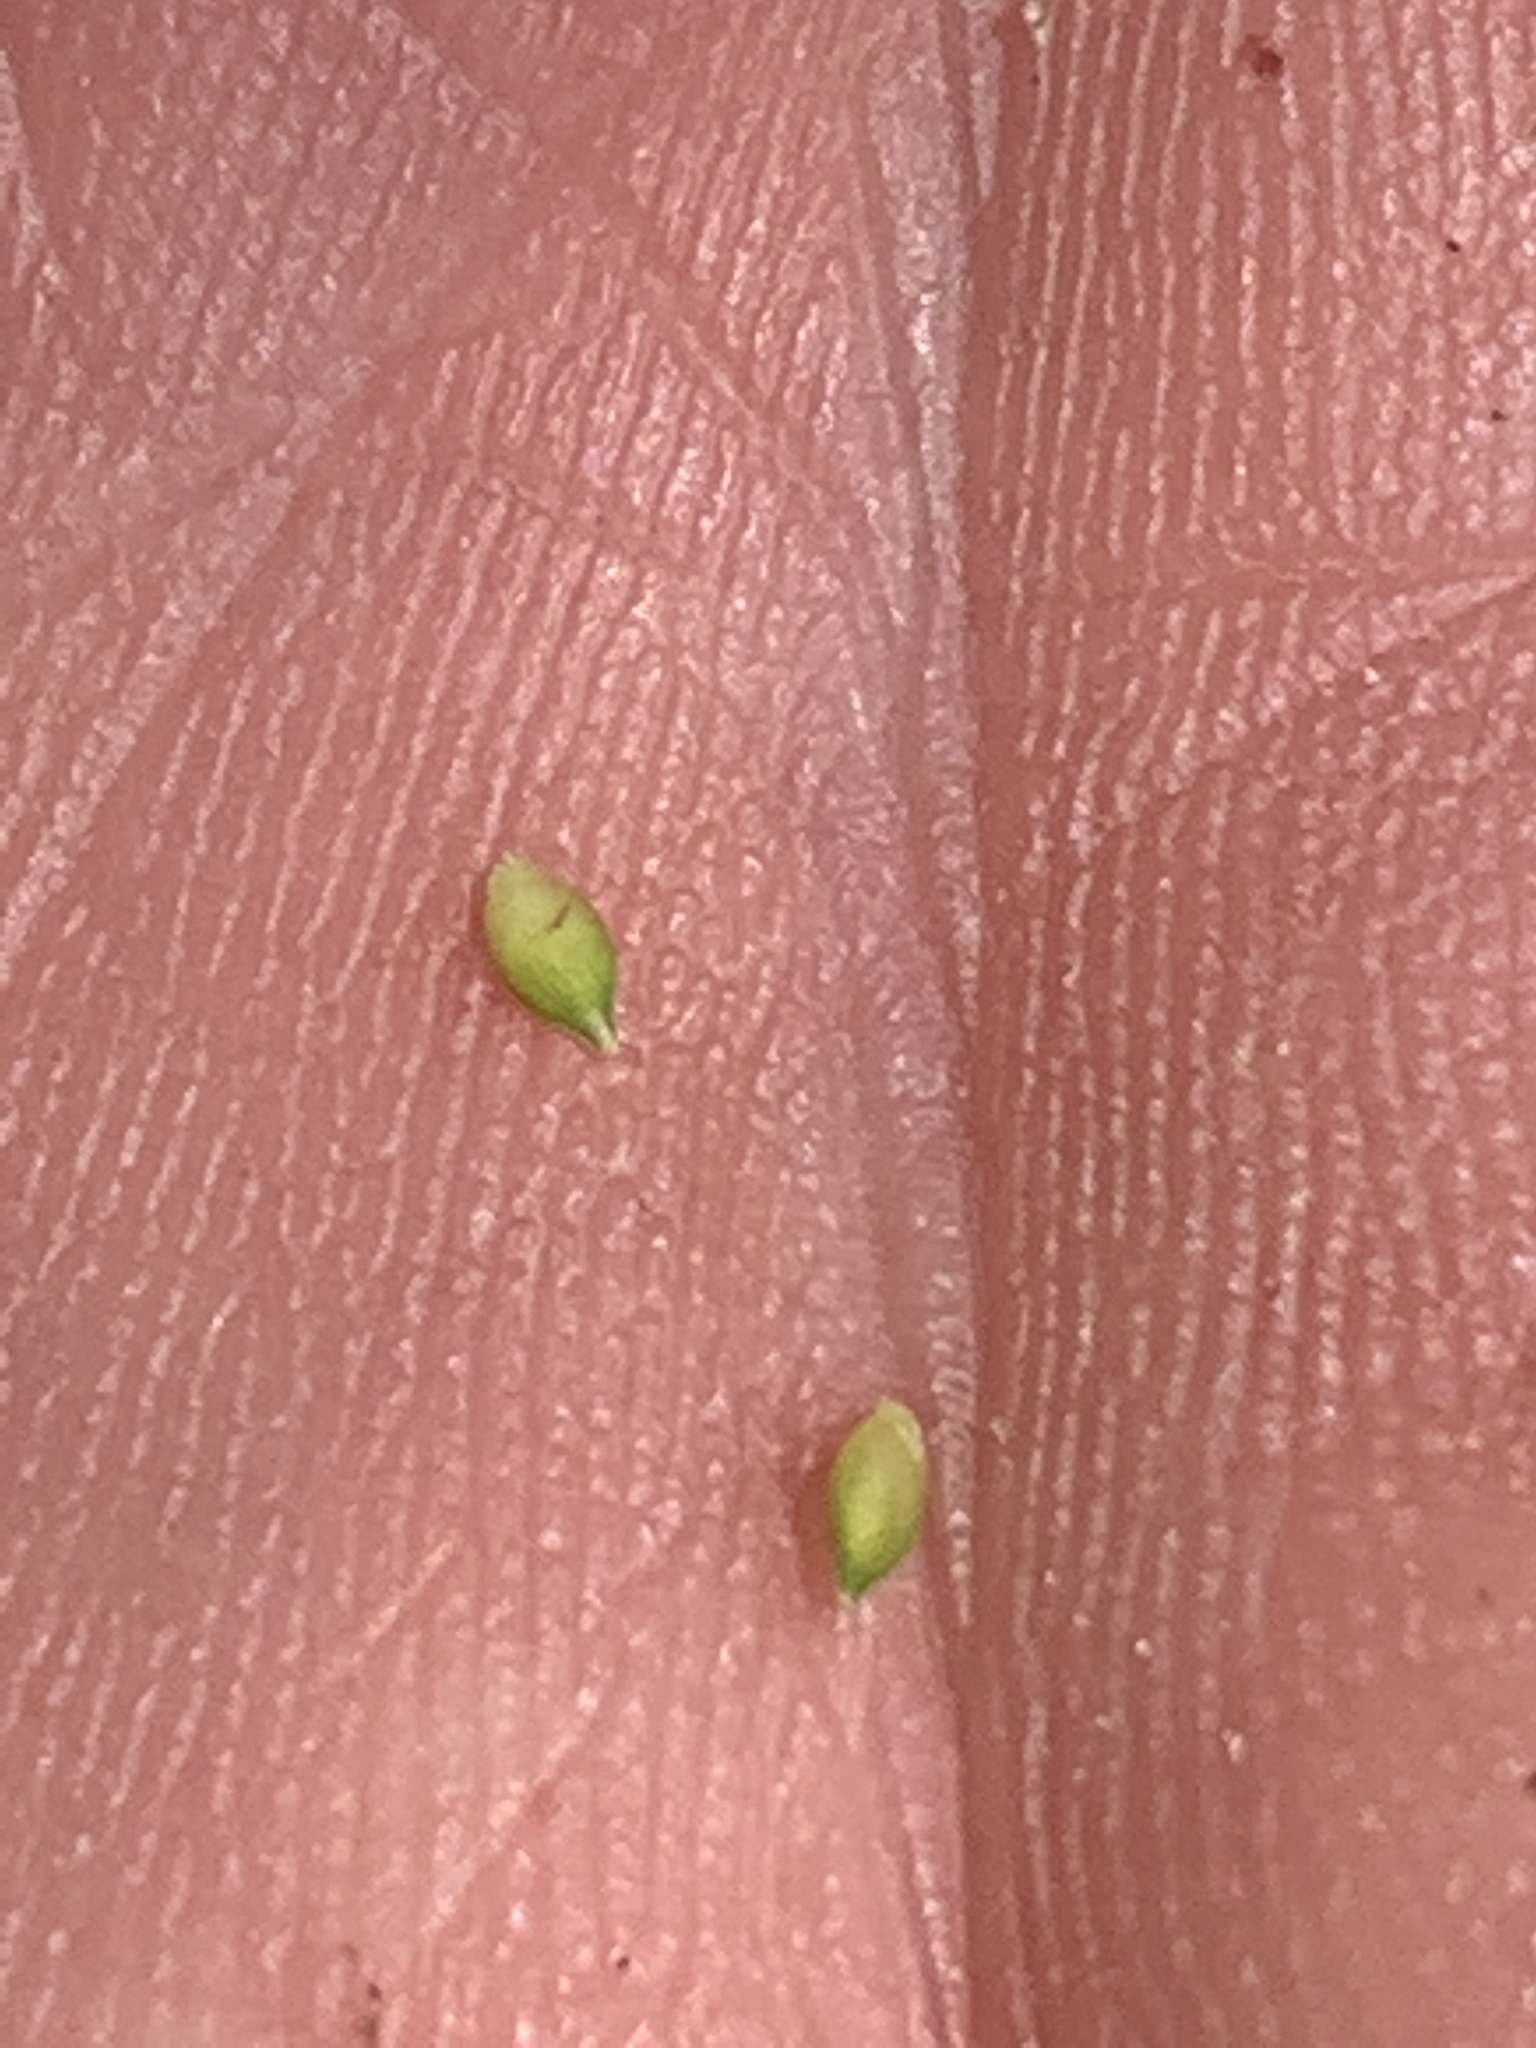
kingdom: Plantae
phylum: Tracheophyta
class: Liliopsida
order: Poales
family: Cyperaceae
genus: Carex
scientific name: Carex brunnescens
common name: Brown sedge
